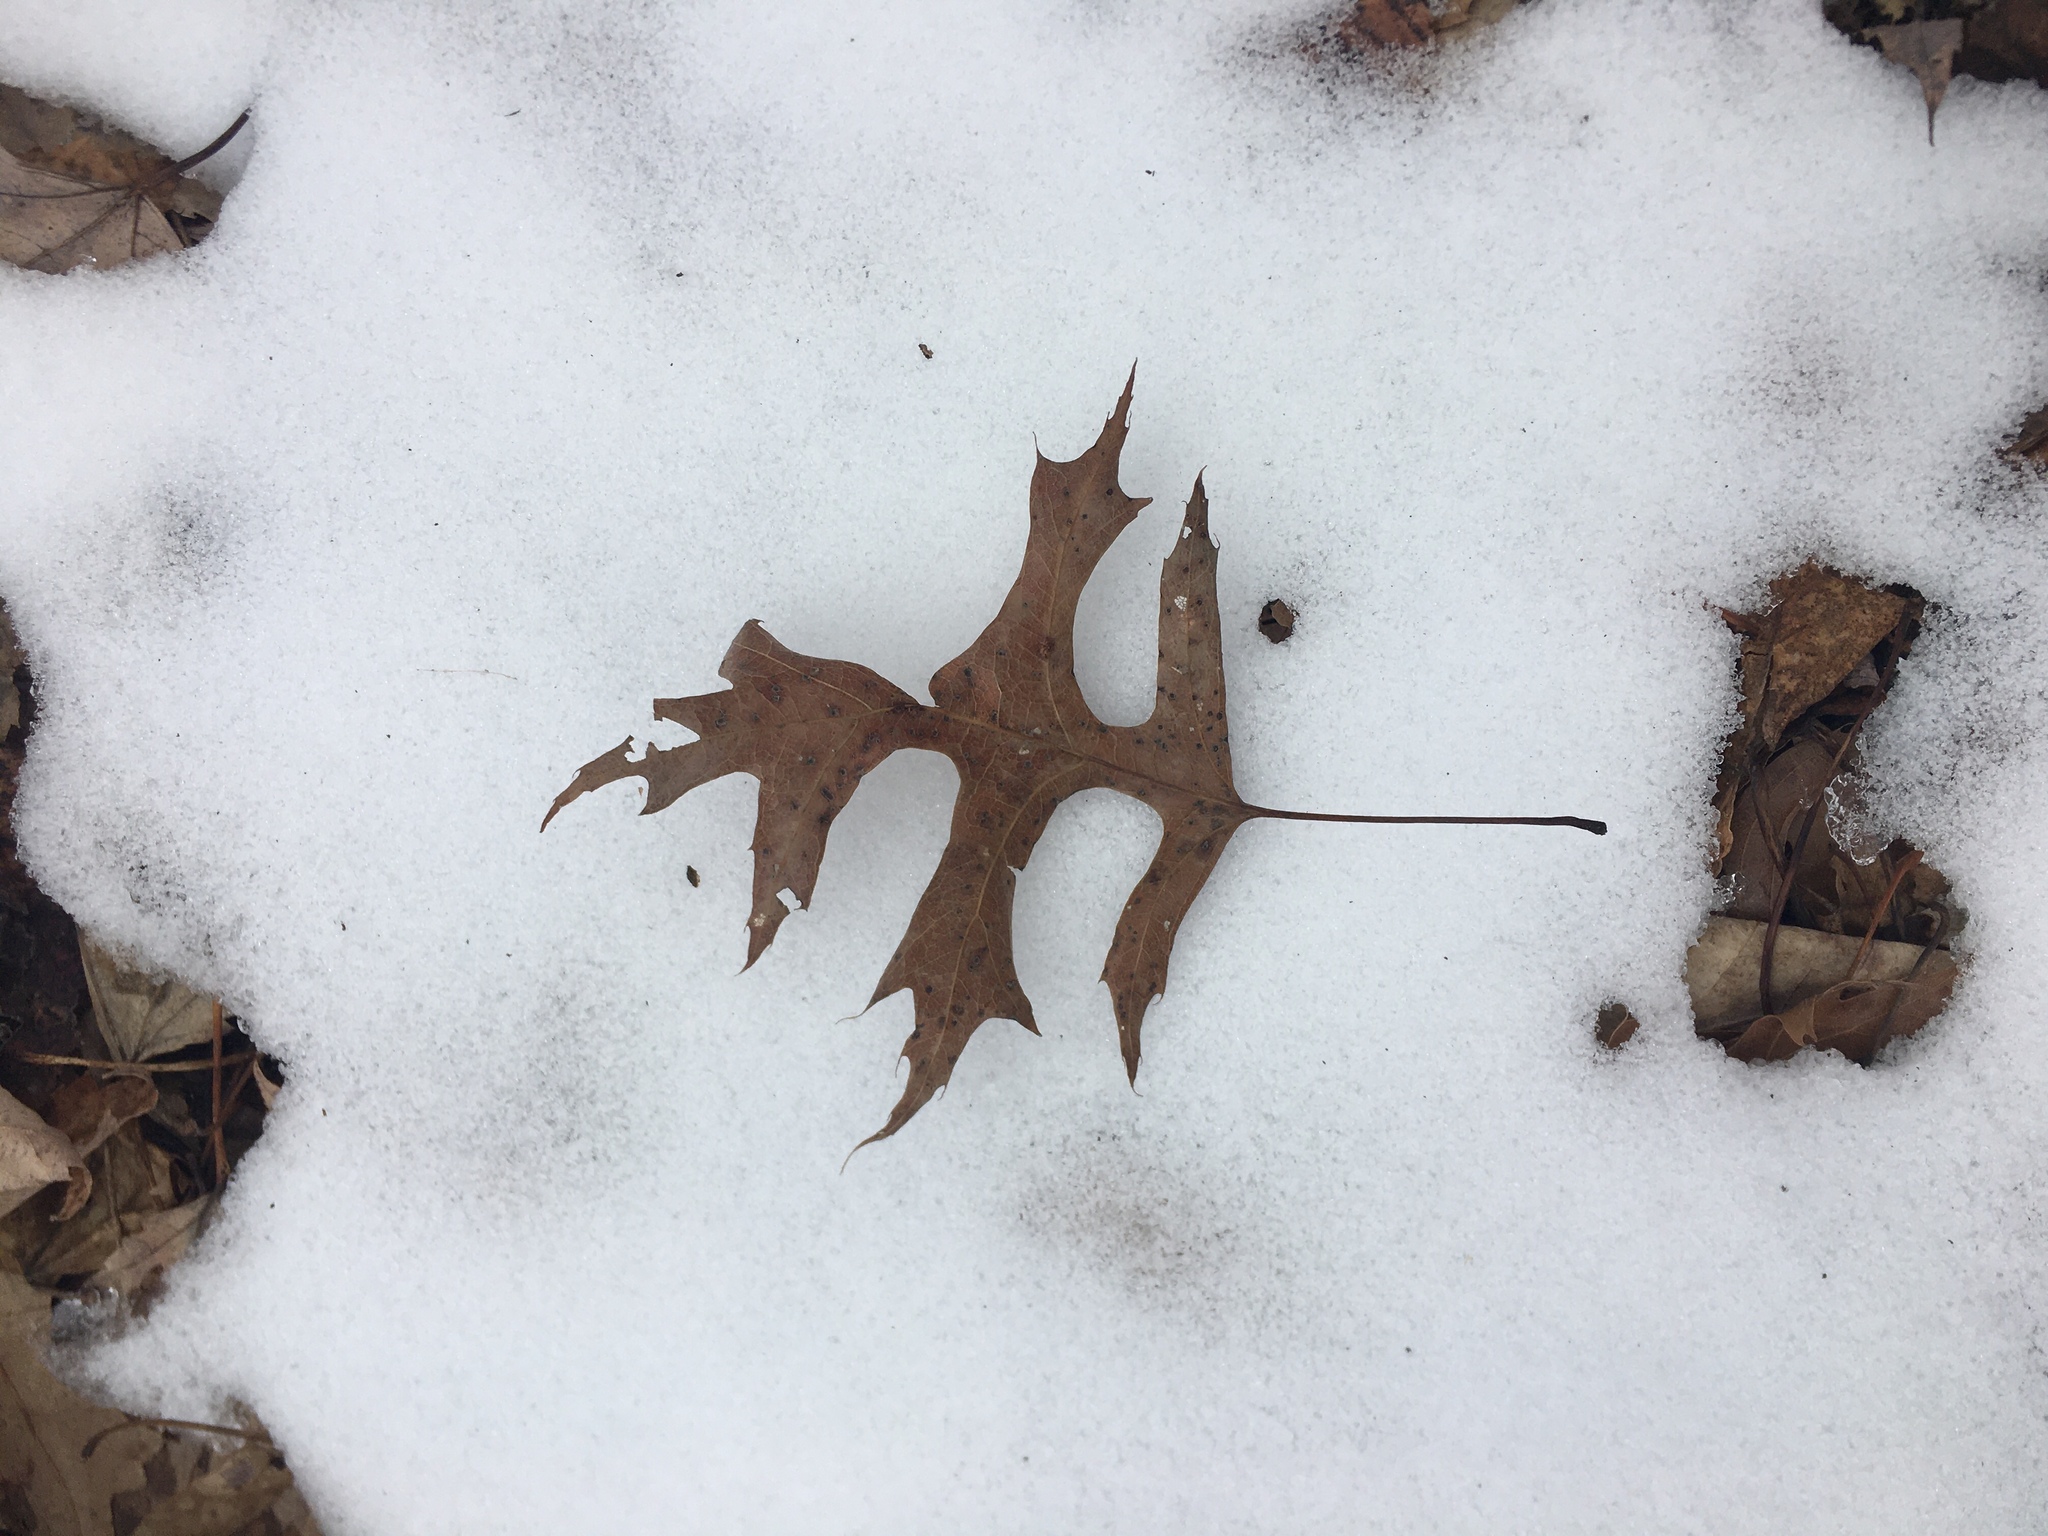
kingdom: Plantae
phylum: Tracheophyta
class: Magnoliopsida
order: Fagales
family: Fagaceae
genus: Quercus
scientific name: Quercus palustris
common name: Pin oak
